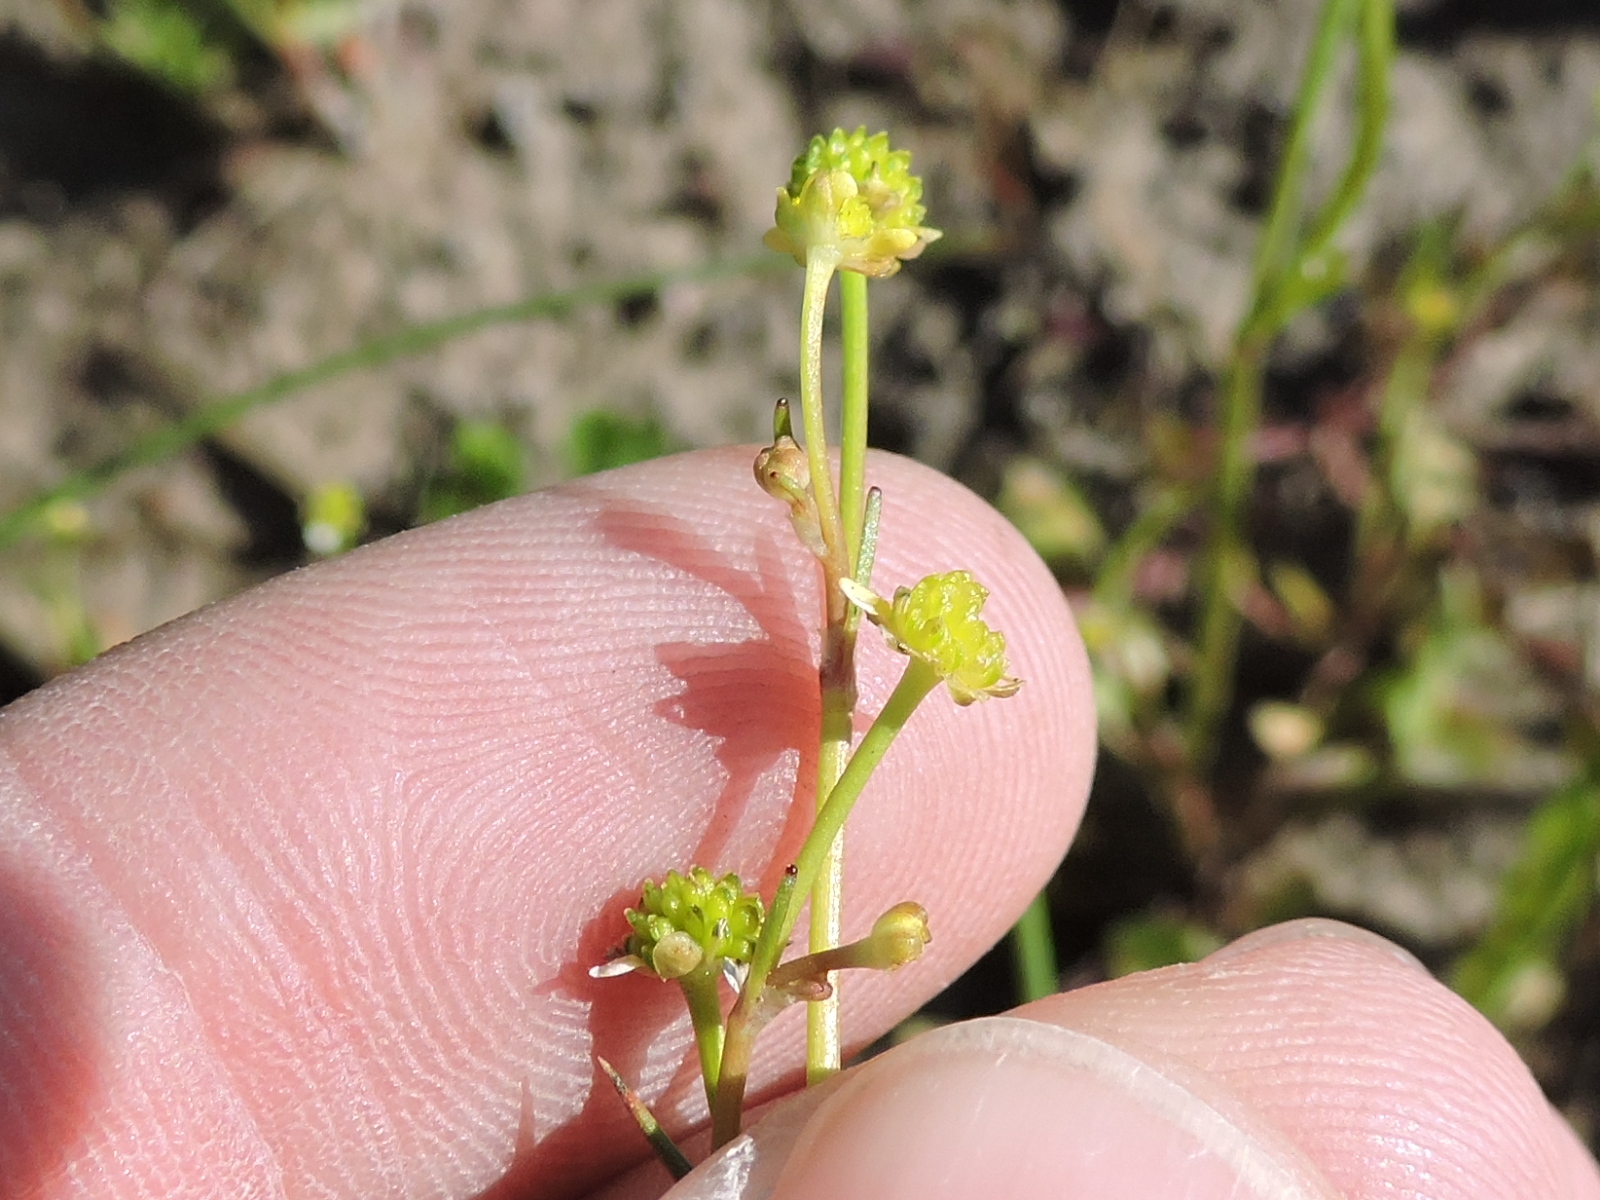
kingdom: Plantae
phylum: Tracheophyta
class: Magnoliopsida
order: Ranunculales
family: Ranunculaceae
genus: Ranunculus
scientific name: Ranunculus pusillus
